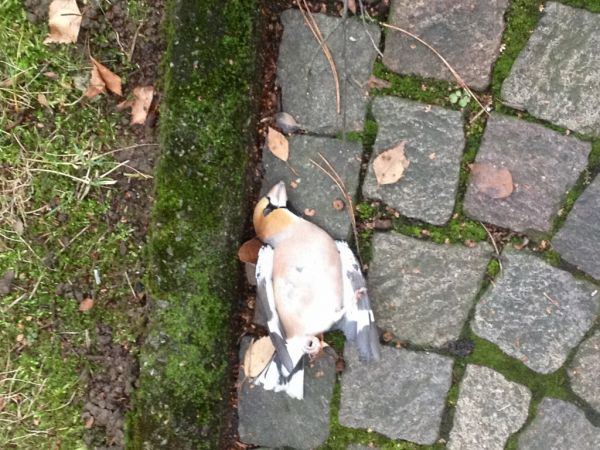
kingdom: Animalia
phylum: Chordata
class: Aves
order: Passeriformes
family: Fringillidae
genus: Coccothraustes
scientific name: Coccothraustes coccothraustes
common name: Hawfinch
